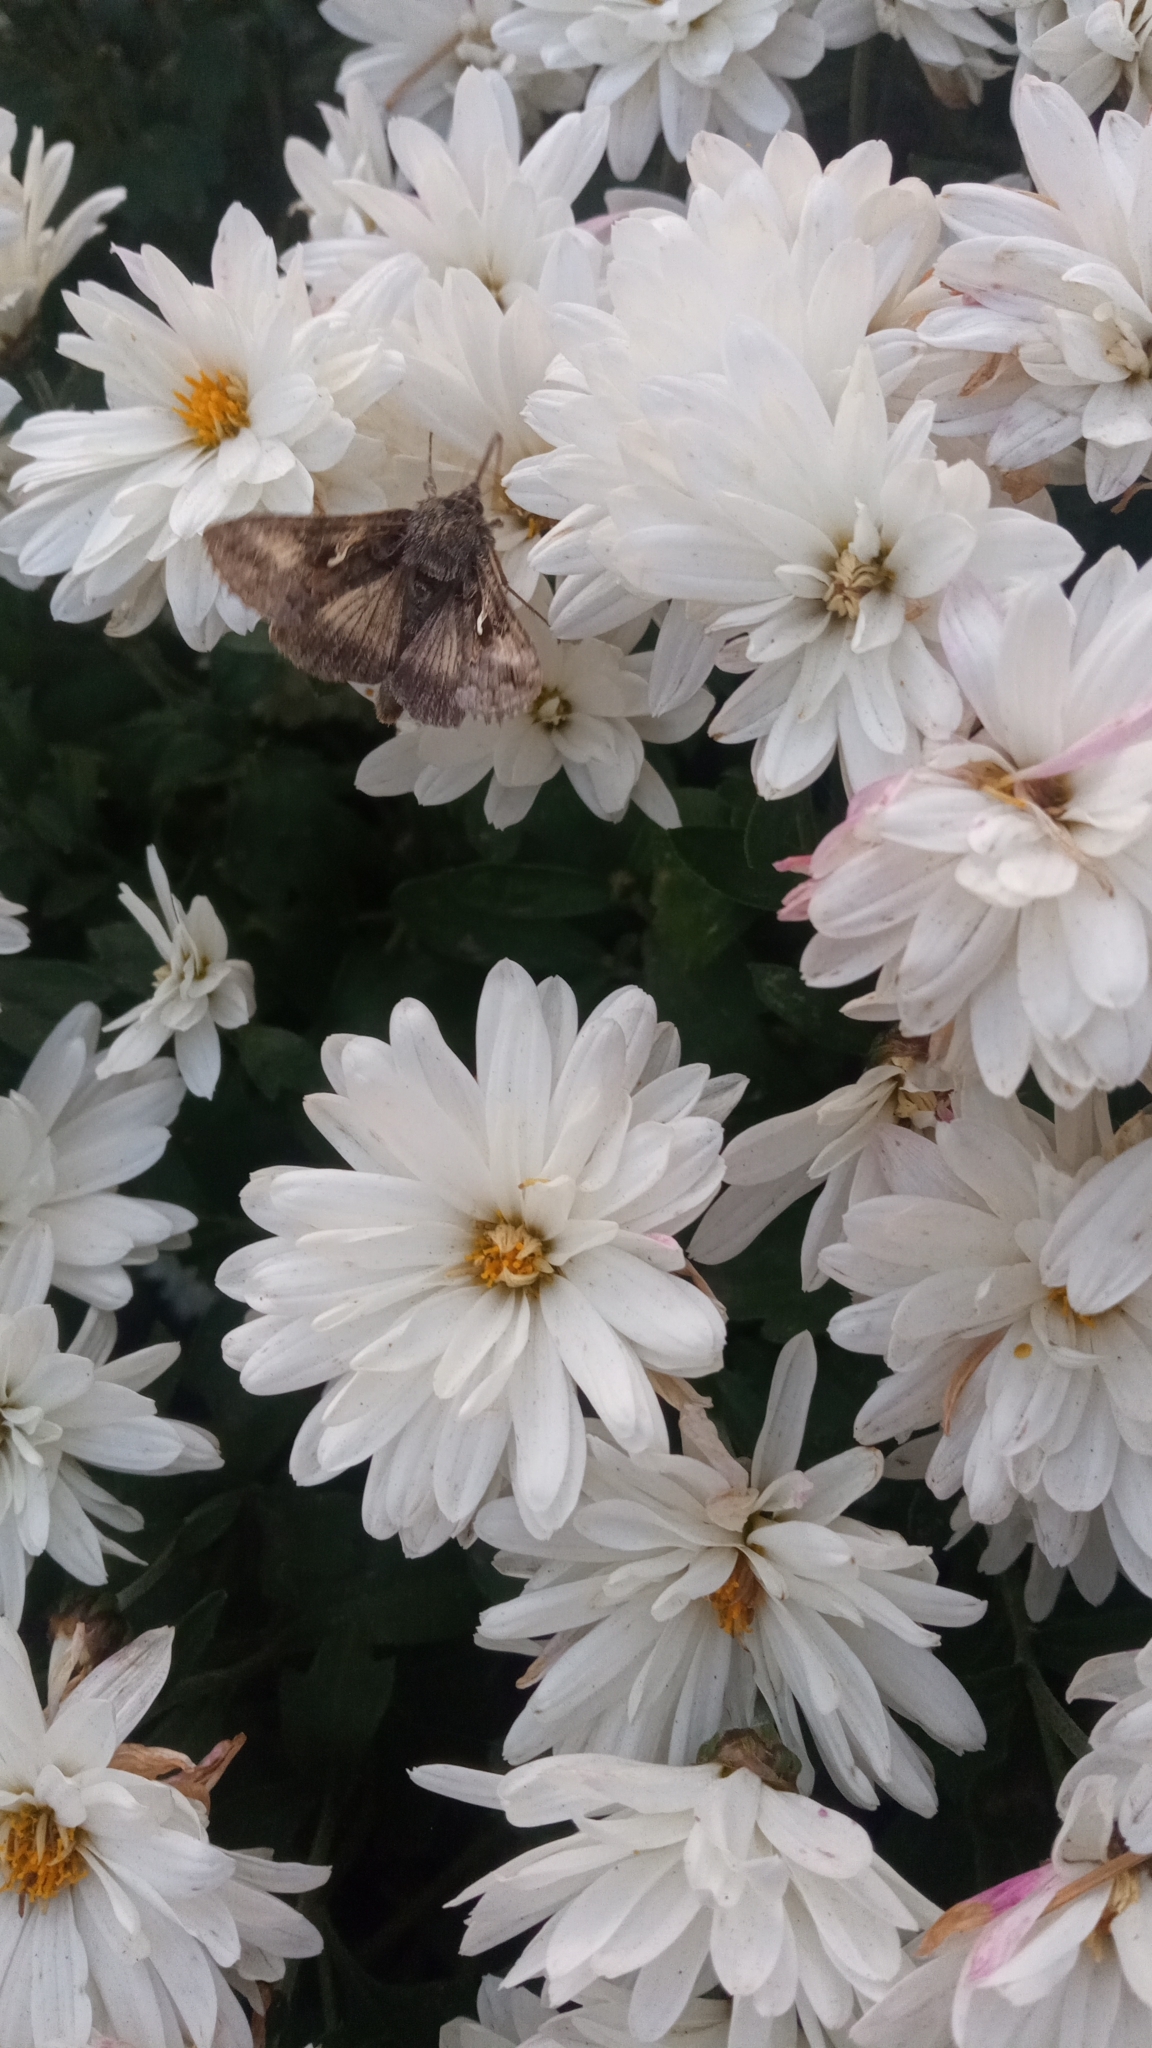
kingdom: Animalia
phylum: Arthropoda
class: Insecta
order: Lepidoptera
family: Noctuidae
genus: Autographa
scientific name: Autographa gamma
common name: Silver y
